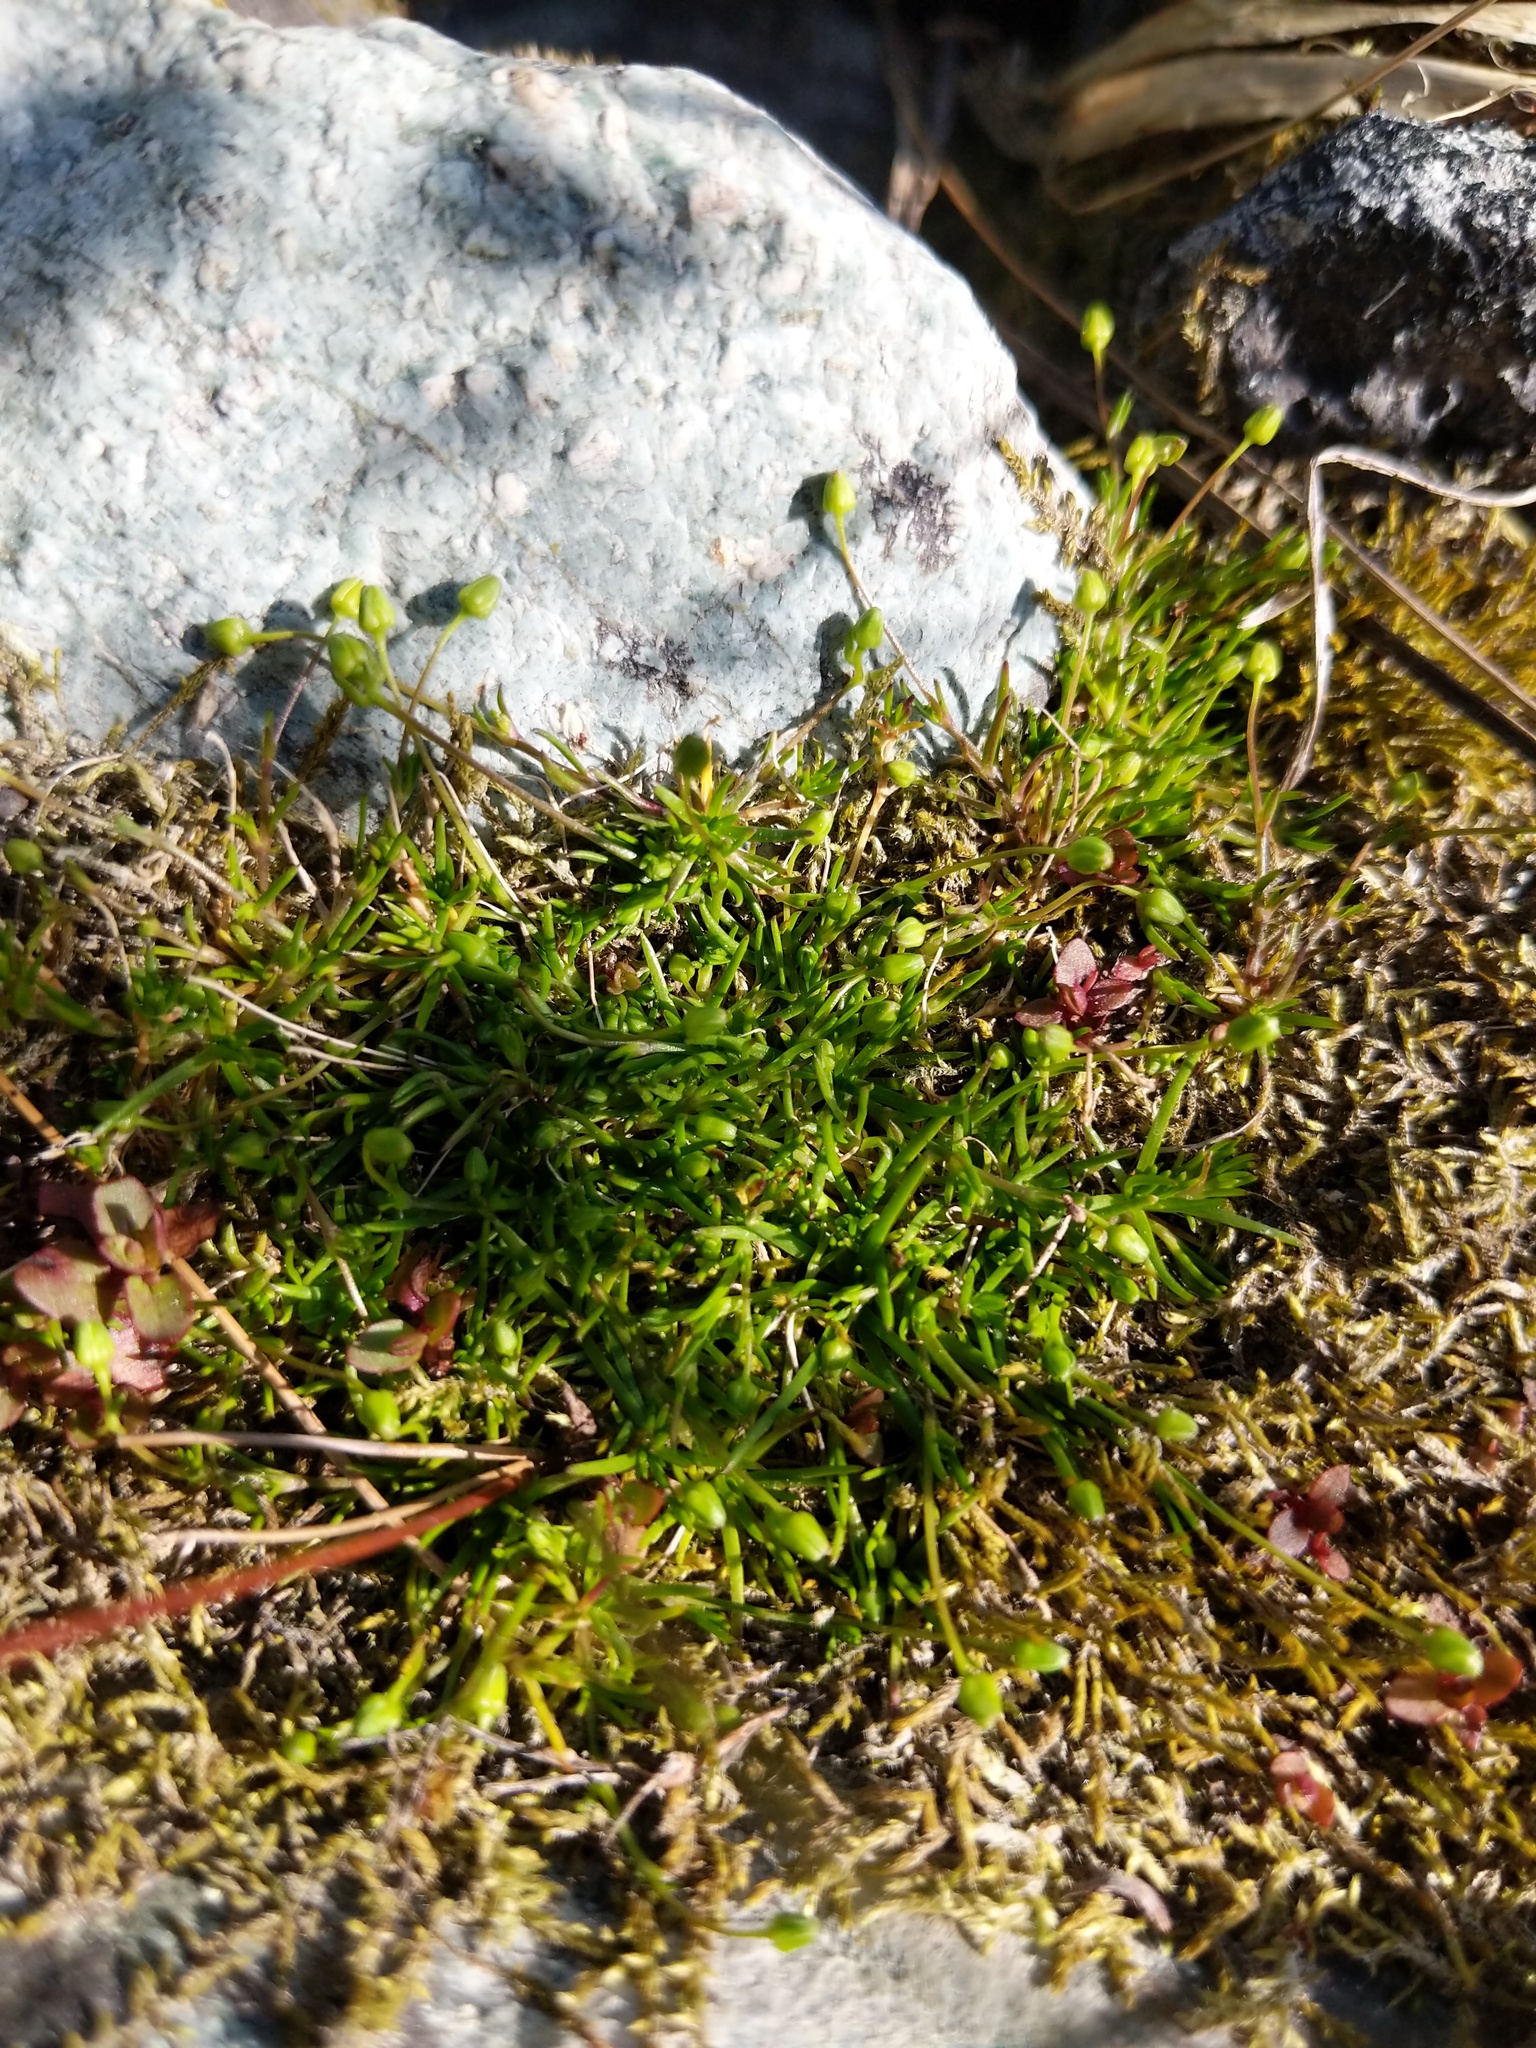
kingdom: Plantae
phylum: Tracheophyta
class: Magnoliopsida
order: Caryophyllales
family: Caryophyllaceae
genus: Sagina
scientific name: Sagina saginoides
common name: Alpine pearlwort
